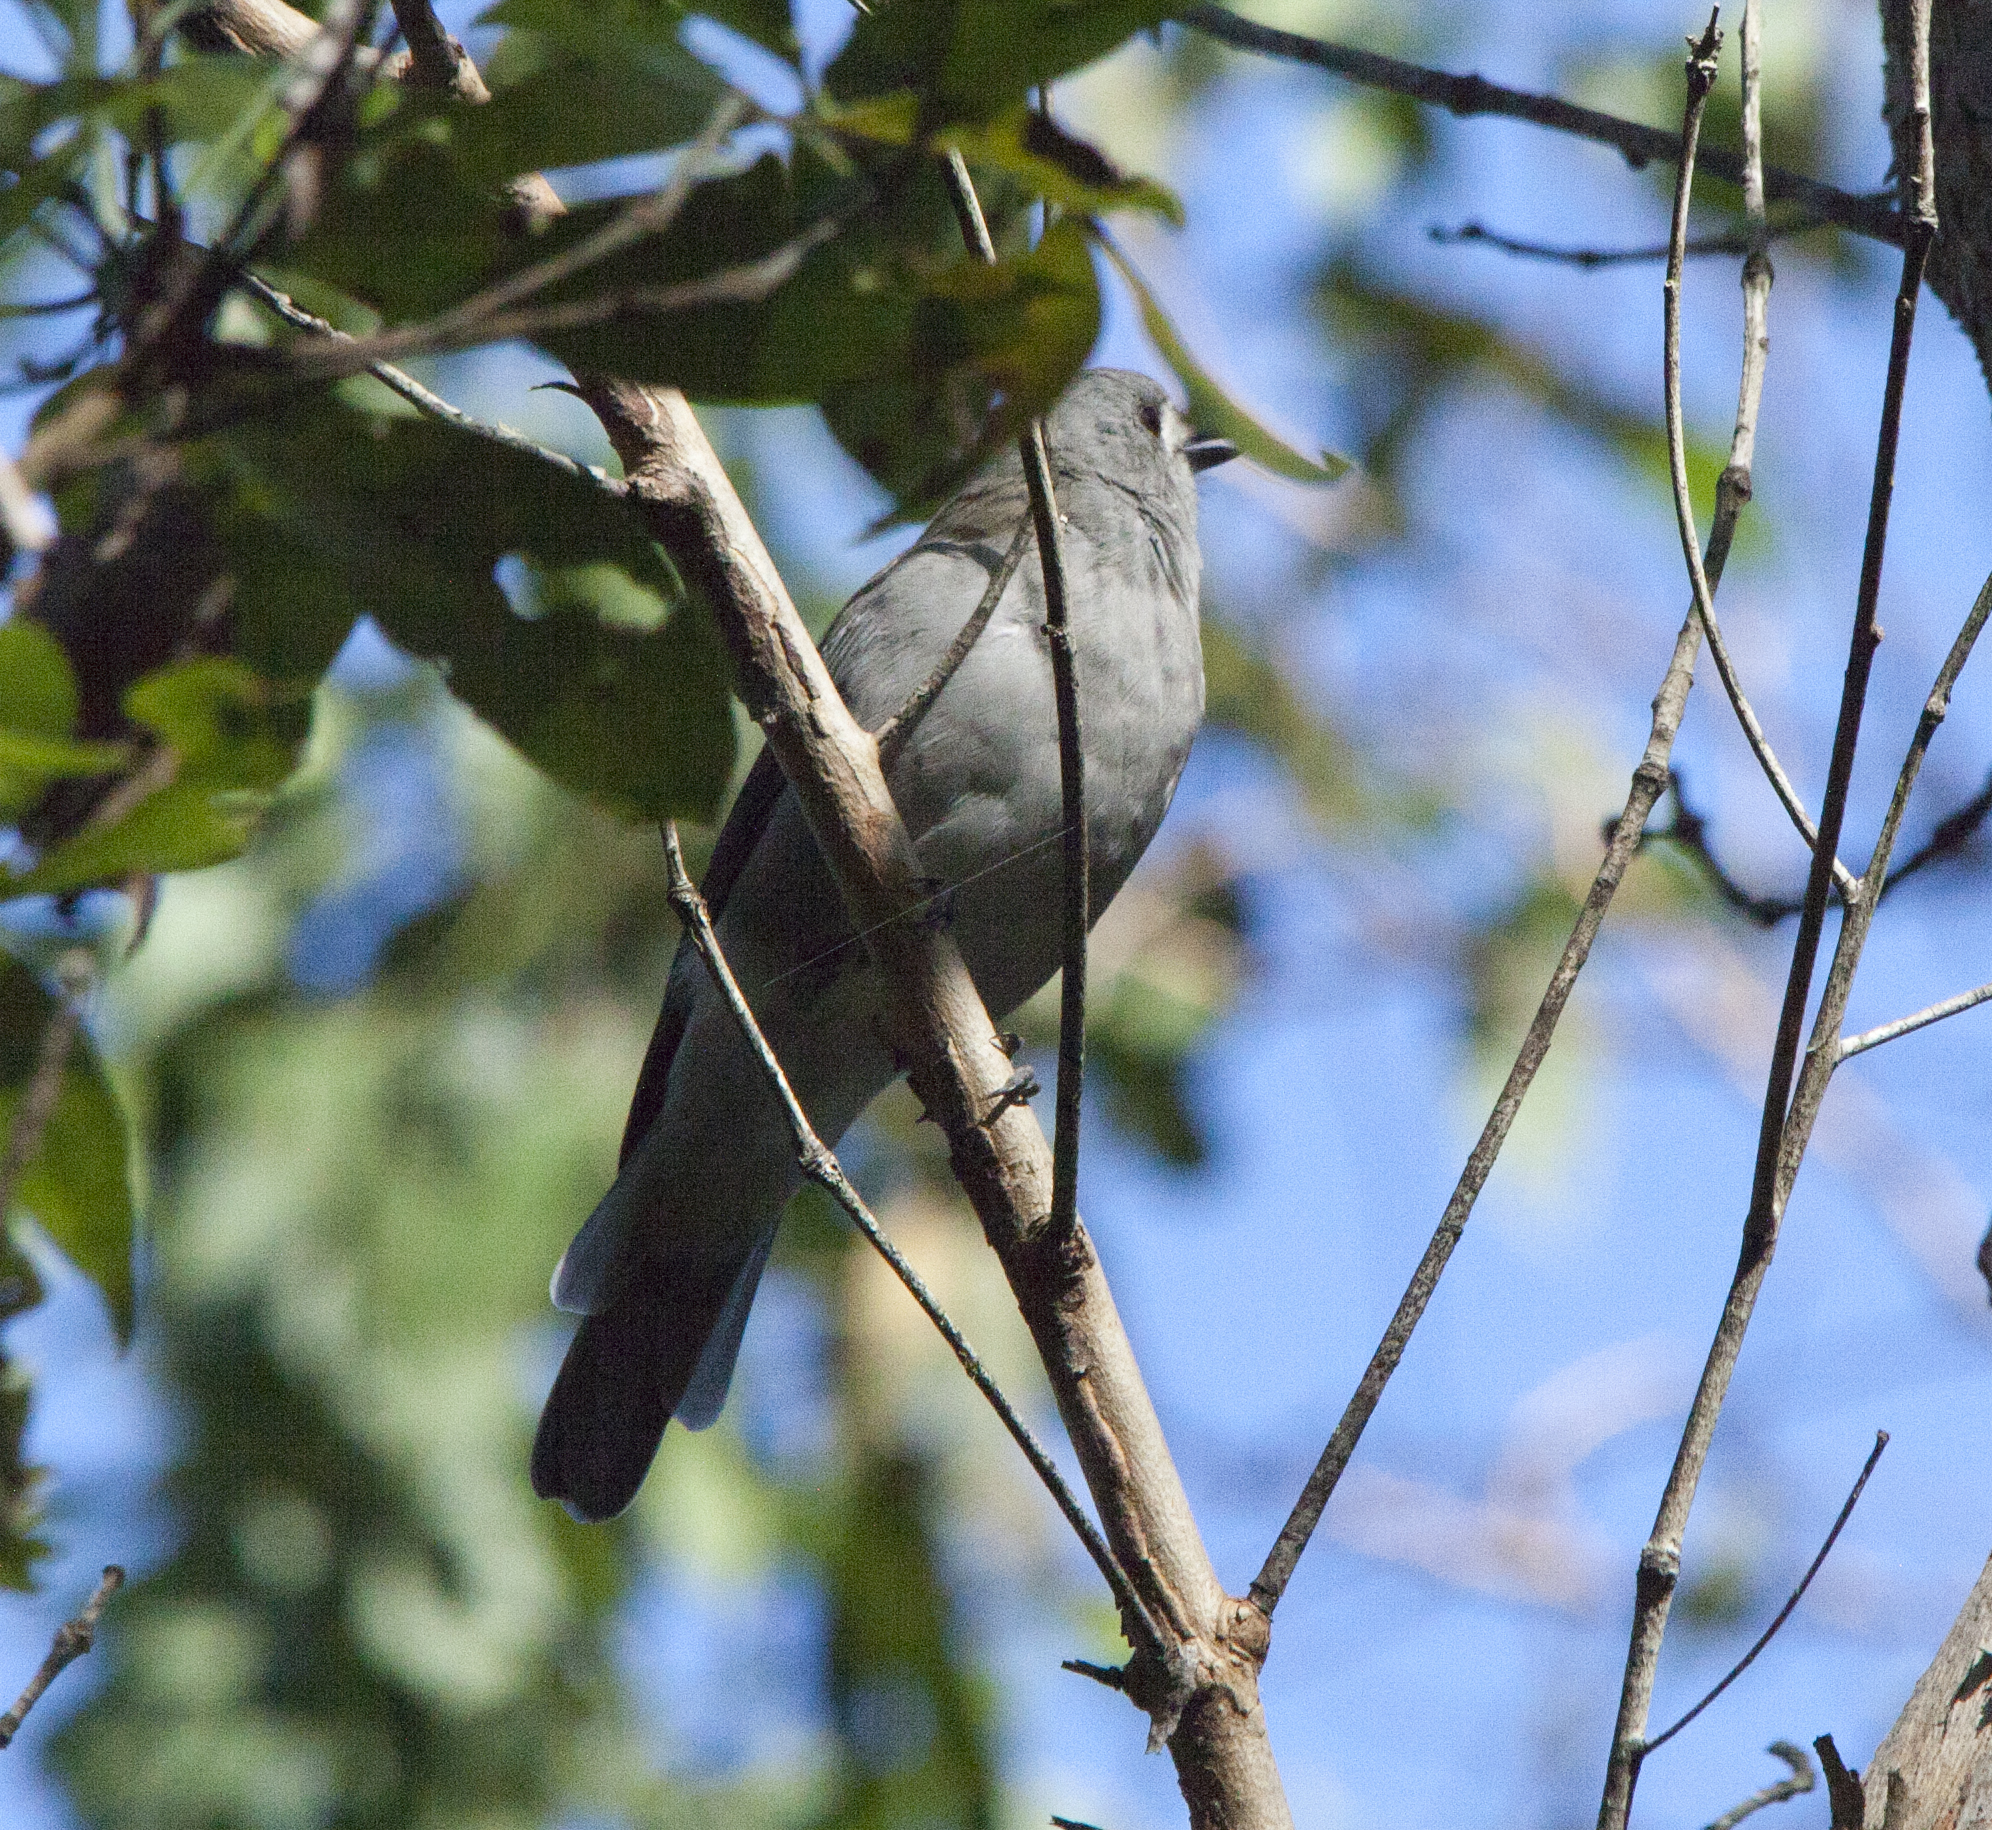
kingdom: Animalia
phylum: Chordata
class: Aves
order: Passeriformes
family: Pachycephalidae
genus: Colluricincla
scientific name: Colluricincla harmonica
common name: Grey shrikethrush
